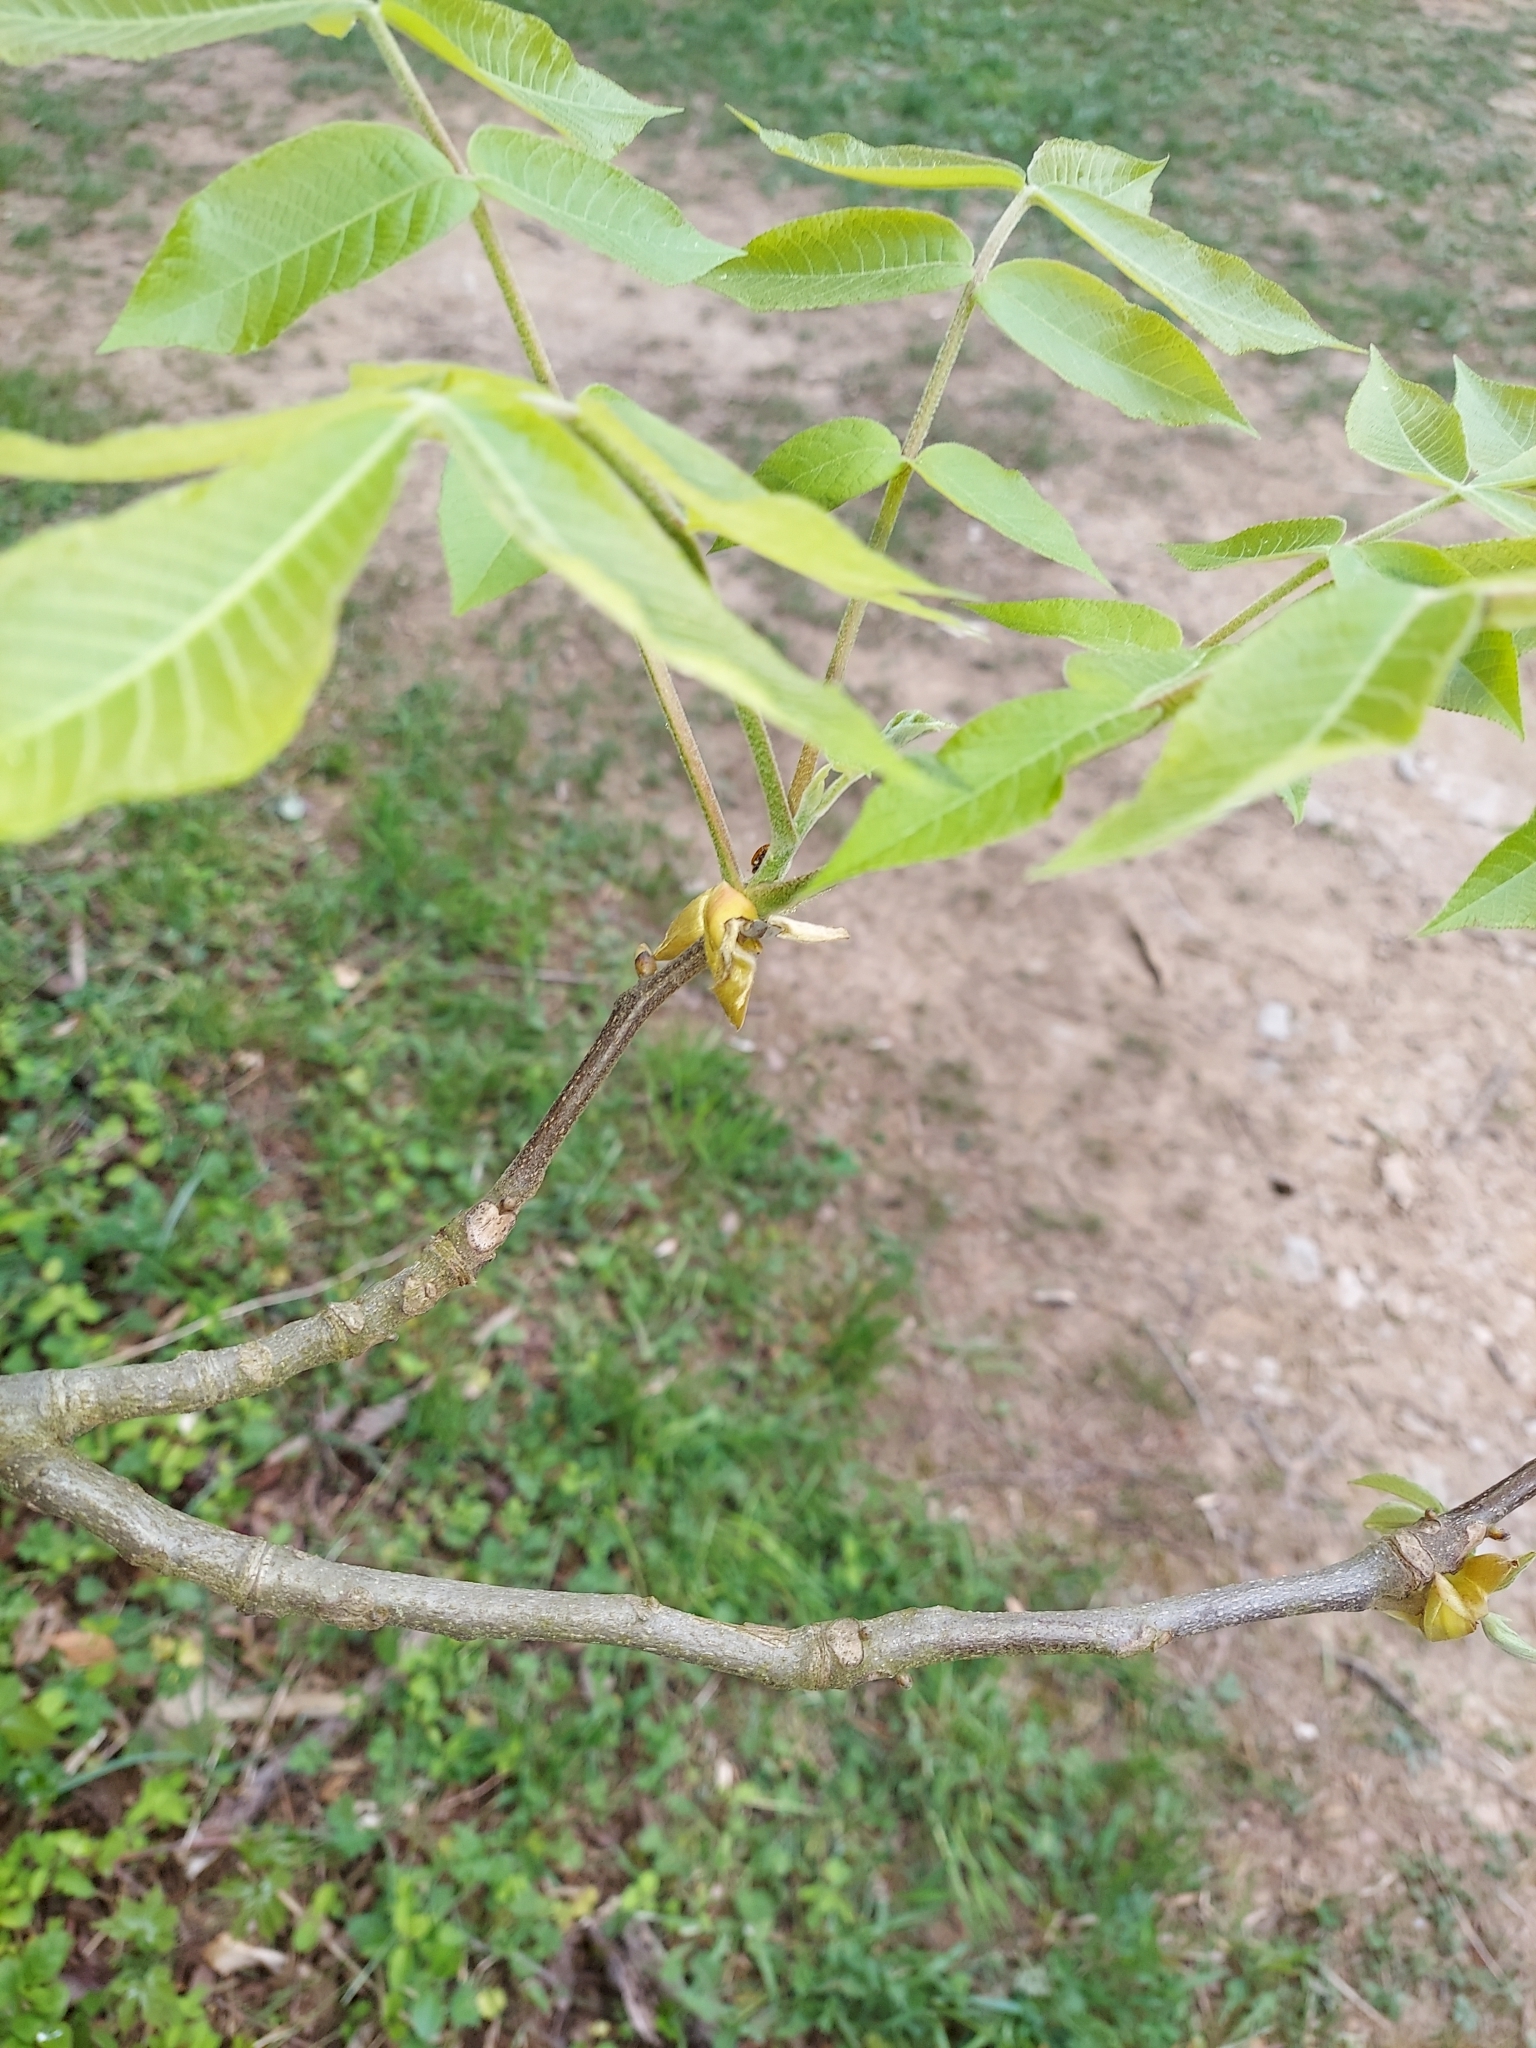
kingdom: Animalia
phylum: Arthropoda
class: Insecta
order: Coleoptera
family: Coccinellidae
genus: Harmonia
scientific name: Harmonia axyridis
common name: Harlequin ladybird
